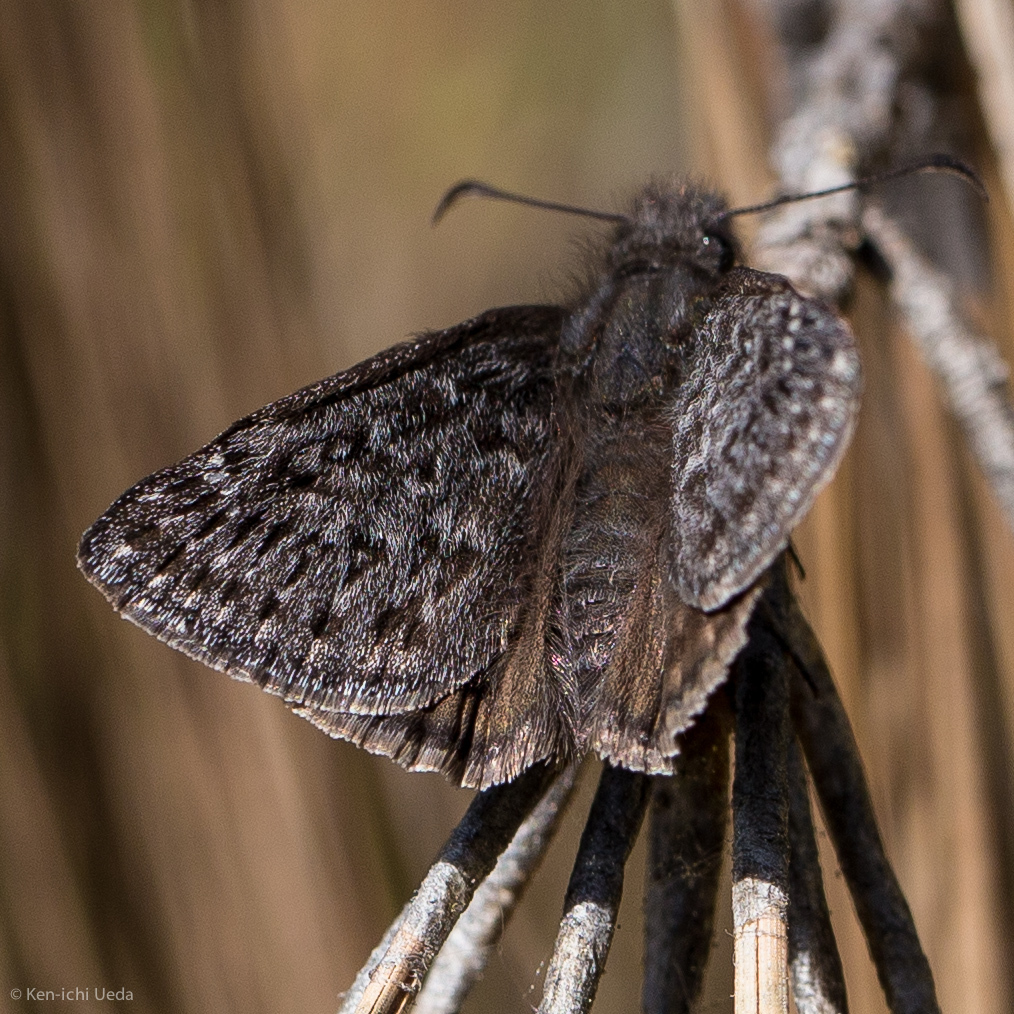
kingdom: Animalia
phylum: Arthropoda
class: Insecta
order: Lepidoptera
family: Hesperiidae
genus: Erynnis
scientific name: Erynnis propertius
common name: Propertius duskywing
